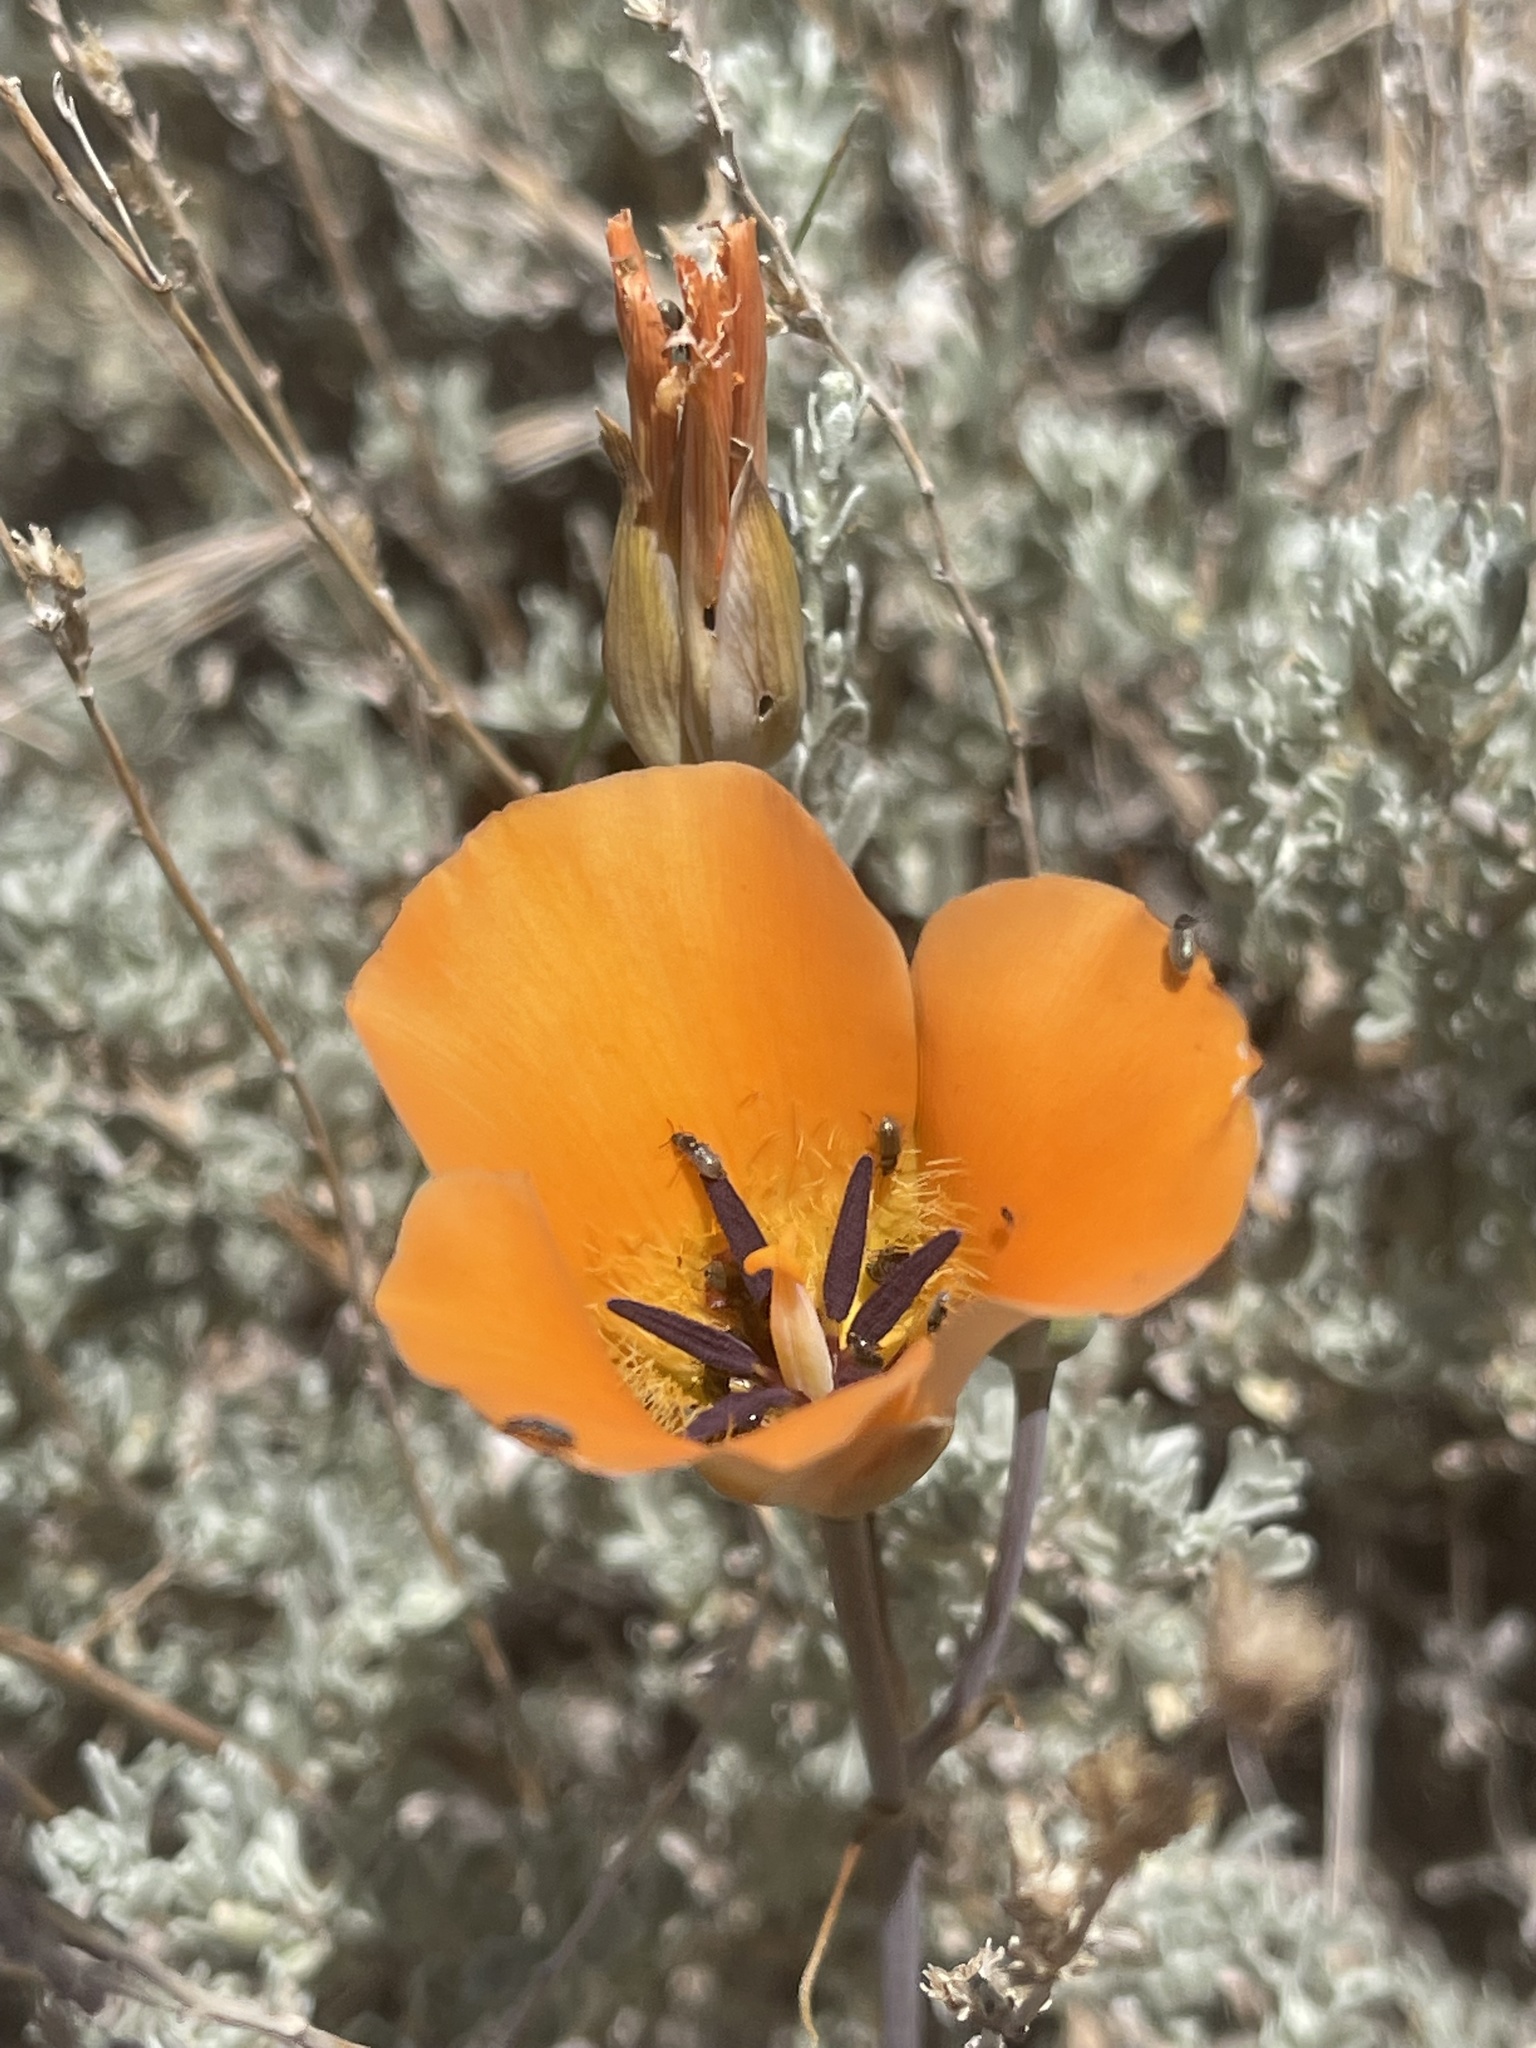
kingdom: Plantae
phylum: Tracheophyta
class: Liliopsida
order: Liliales
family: Liliaceae
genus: Calochortus
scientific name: Calochortus kennedyi
